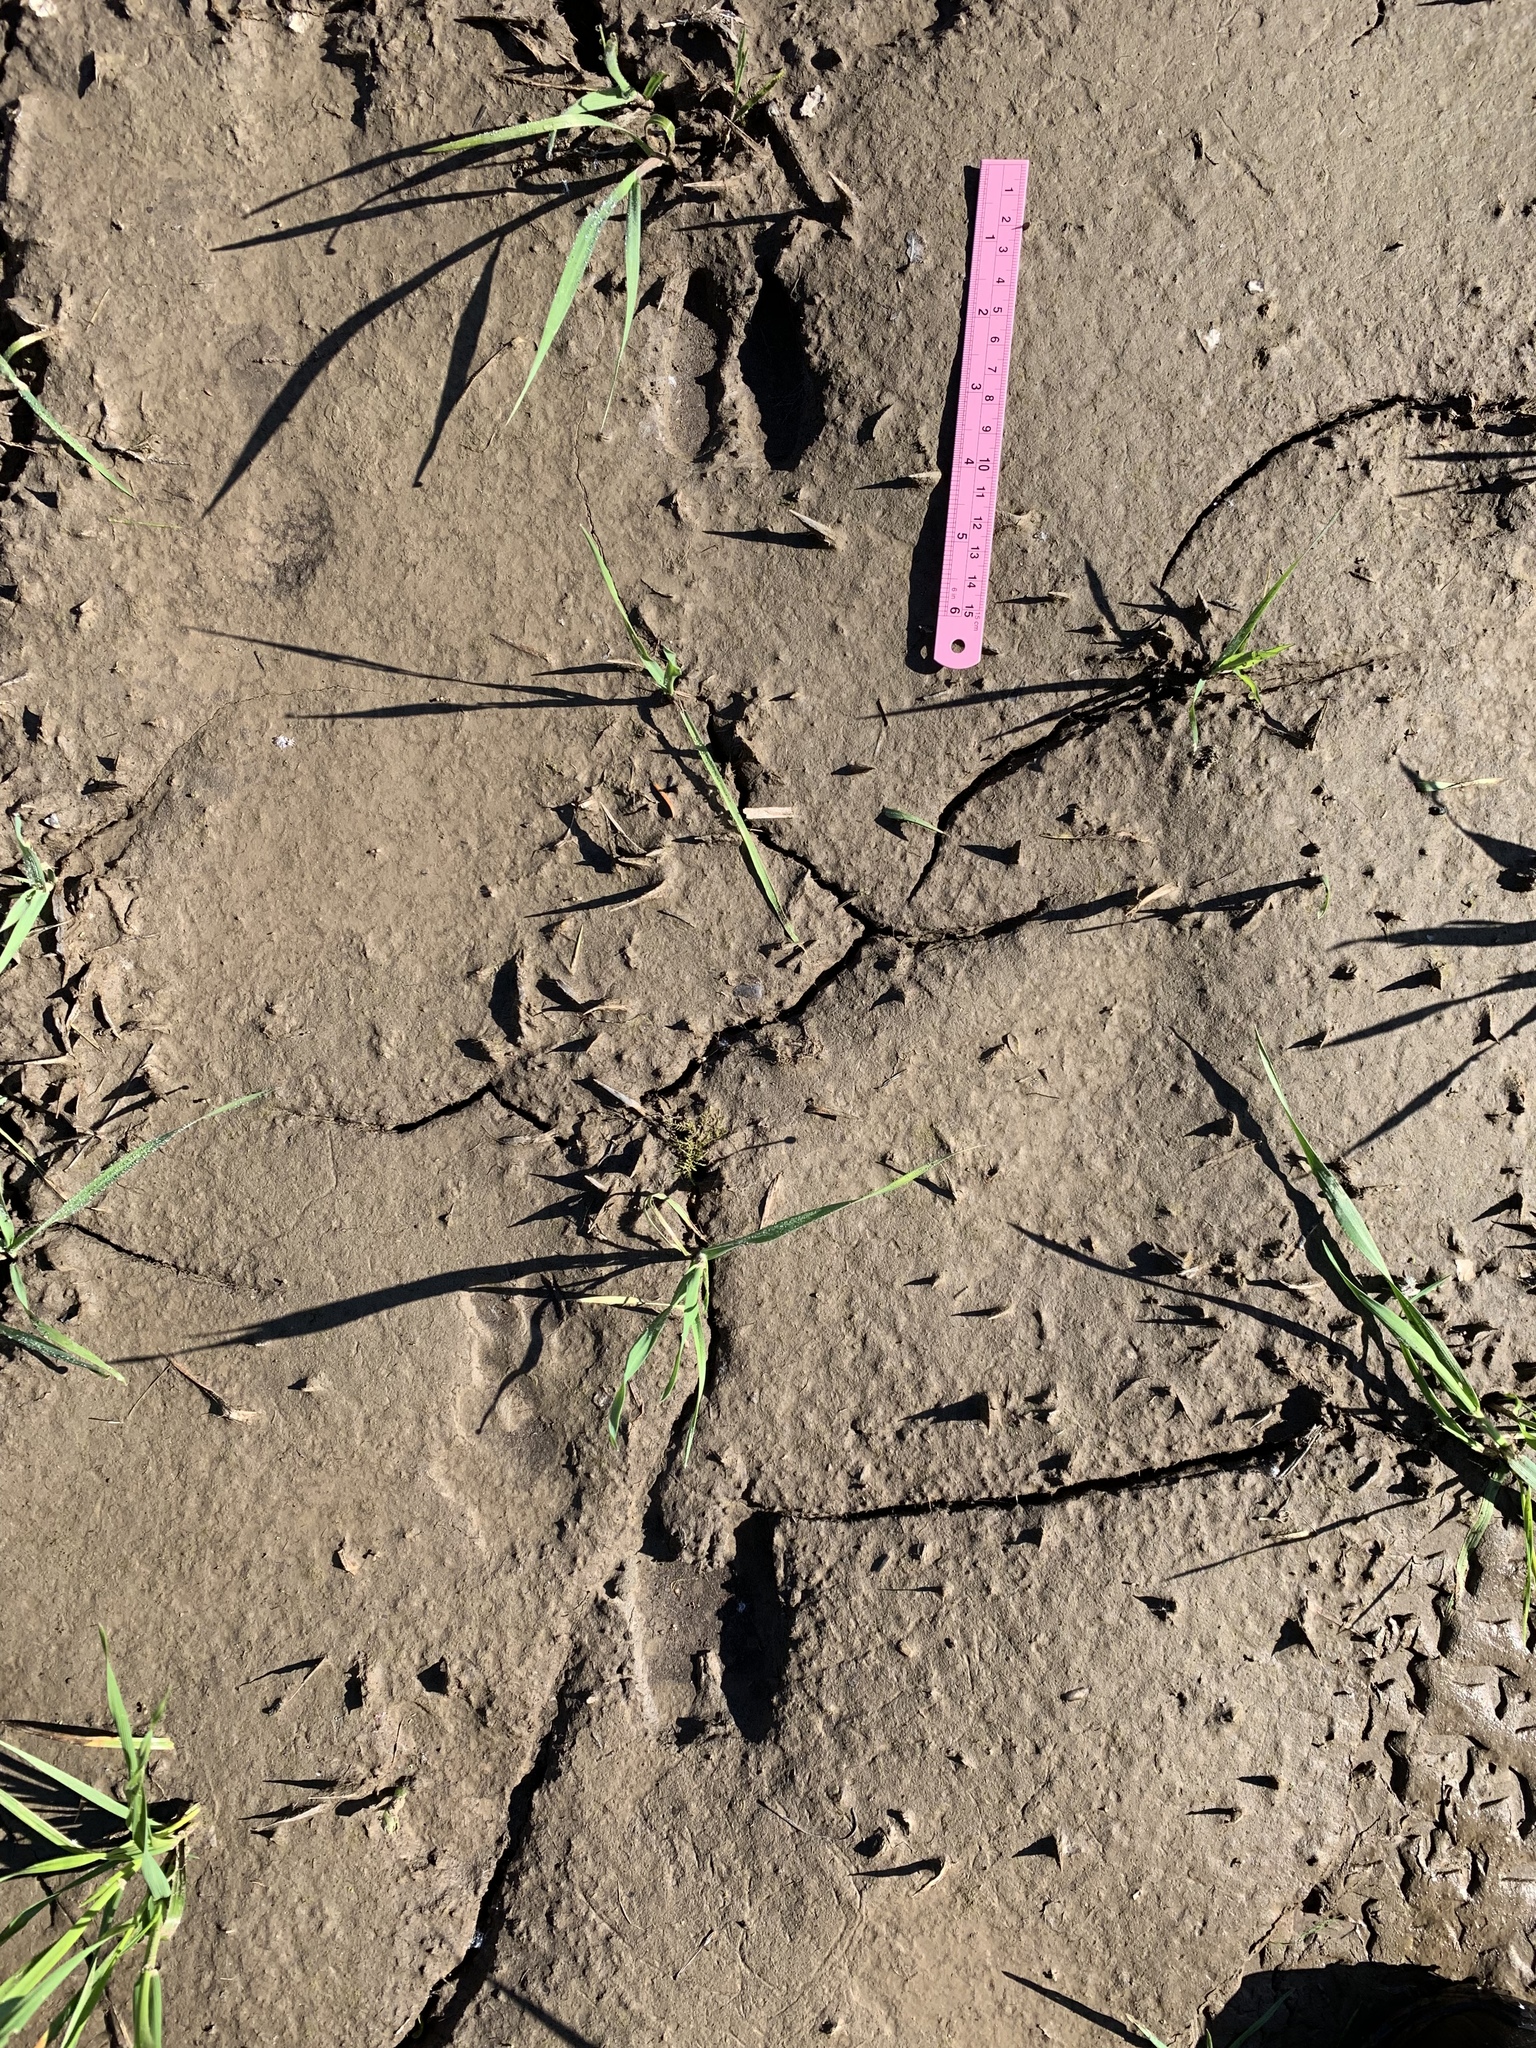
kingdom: Animalia
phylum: Chordata
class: Mammalia
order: Artiodactyla
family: Cervidae
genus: Odocoileus
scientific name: Odocoileus hemionus
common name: Mule deer
